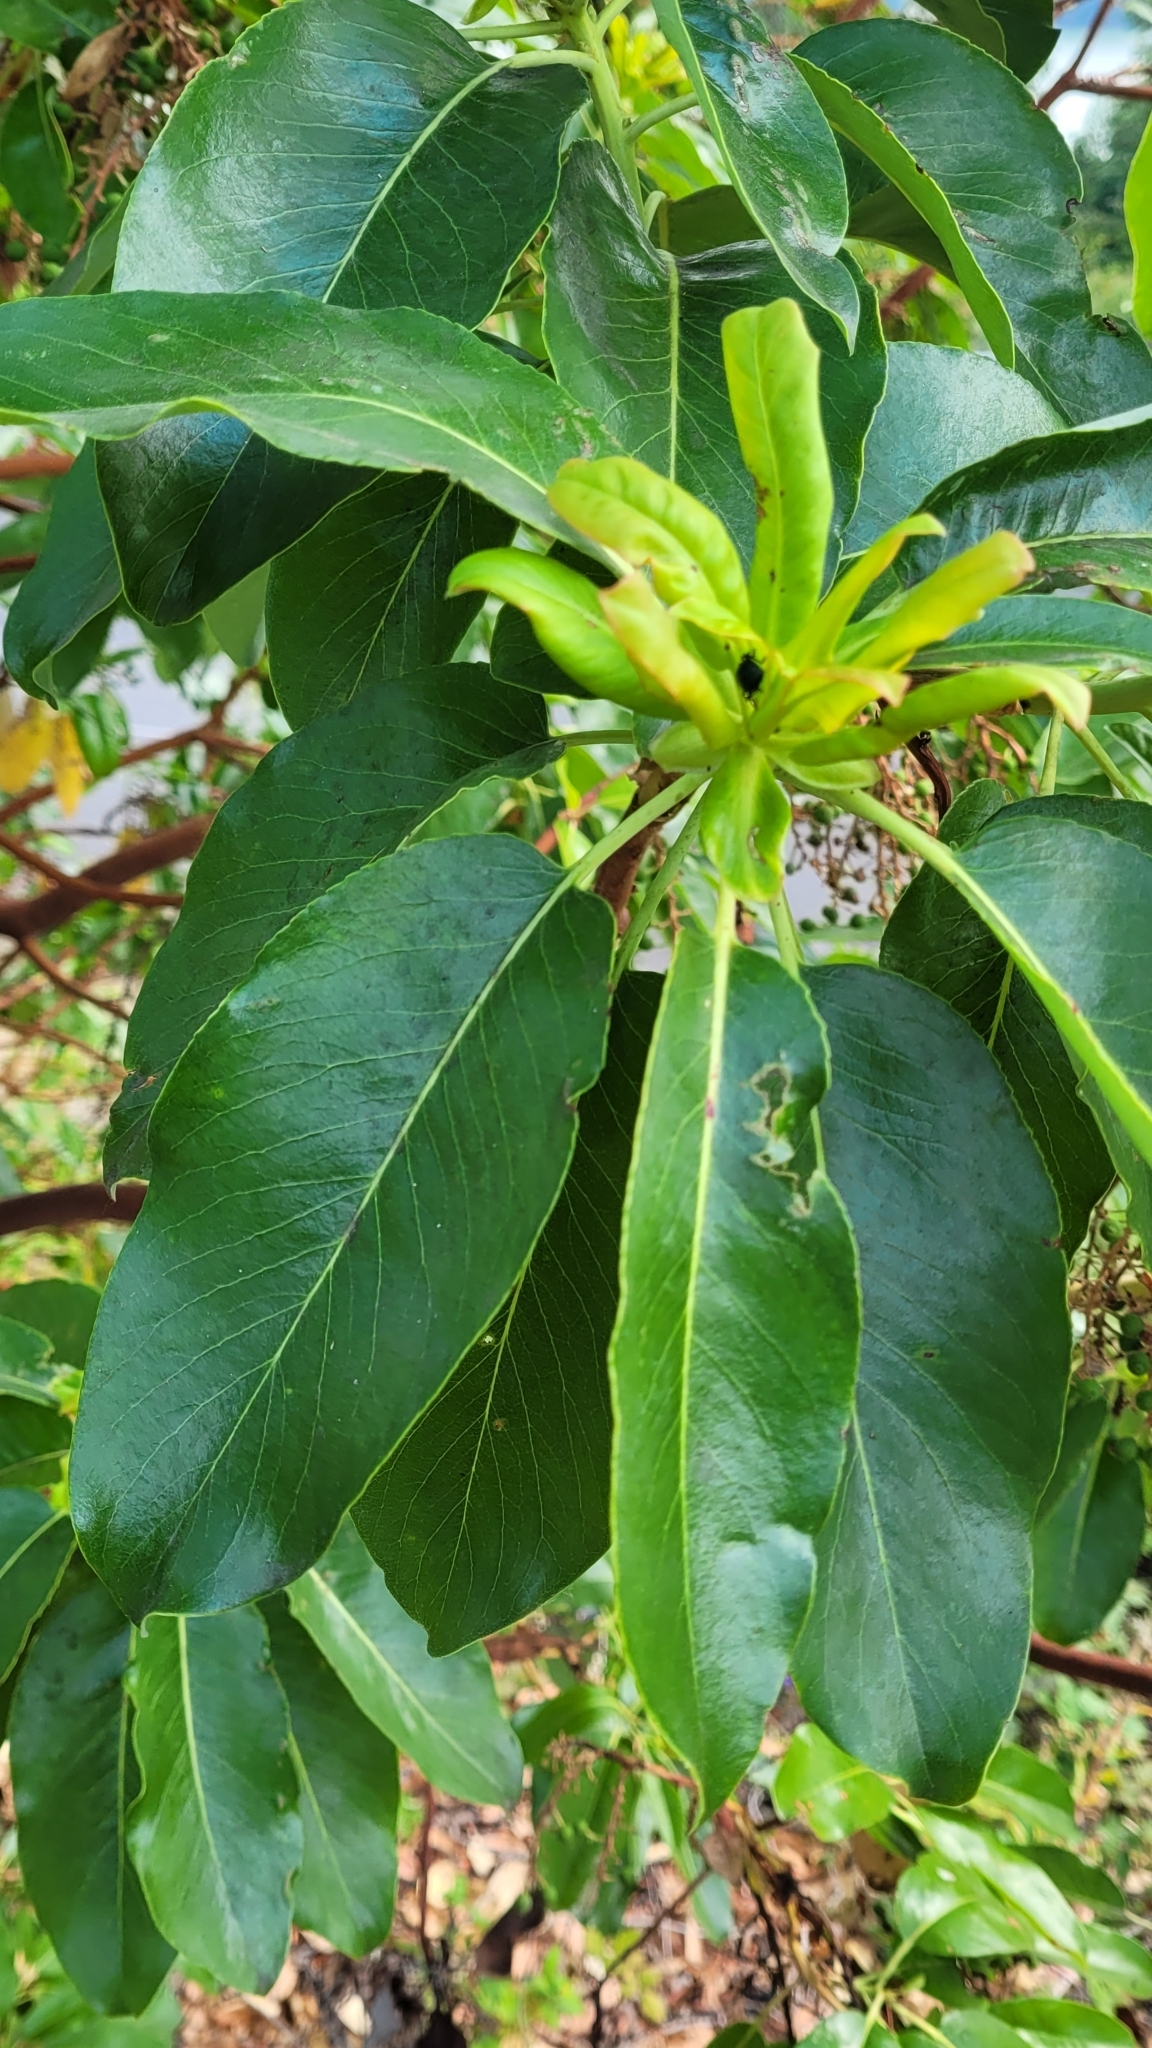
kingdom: Plantae
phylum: Tracheophyta
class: Magnoliopsida
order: Ericales
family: Ericaceae
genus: Arbutus
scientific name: Arbutus menziesii
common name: Pacific madrone
